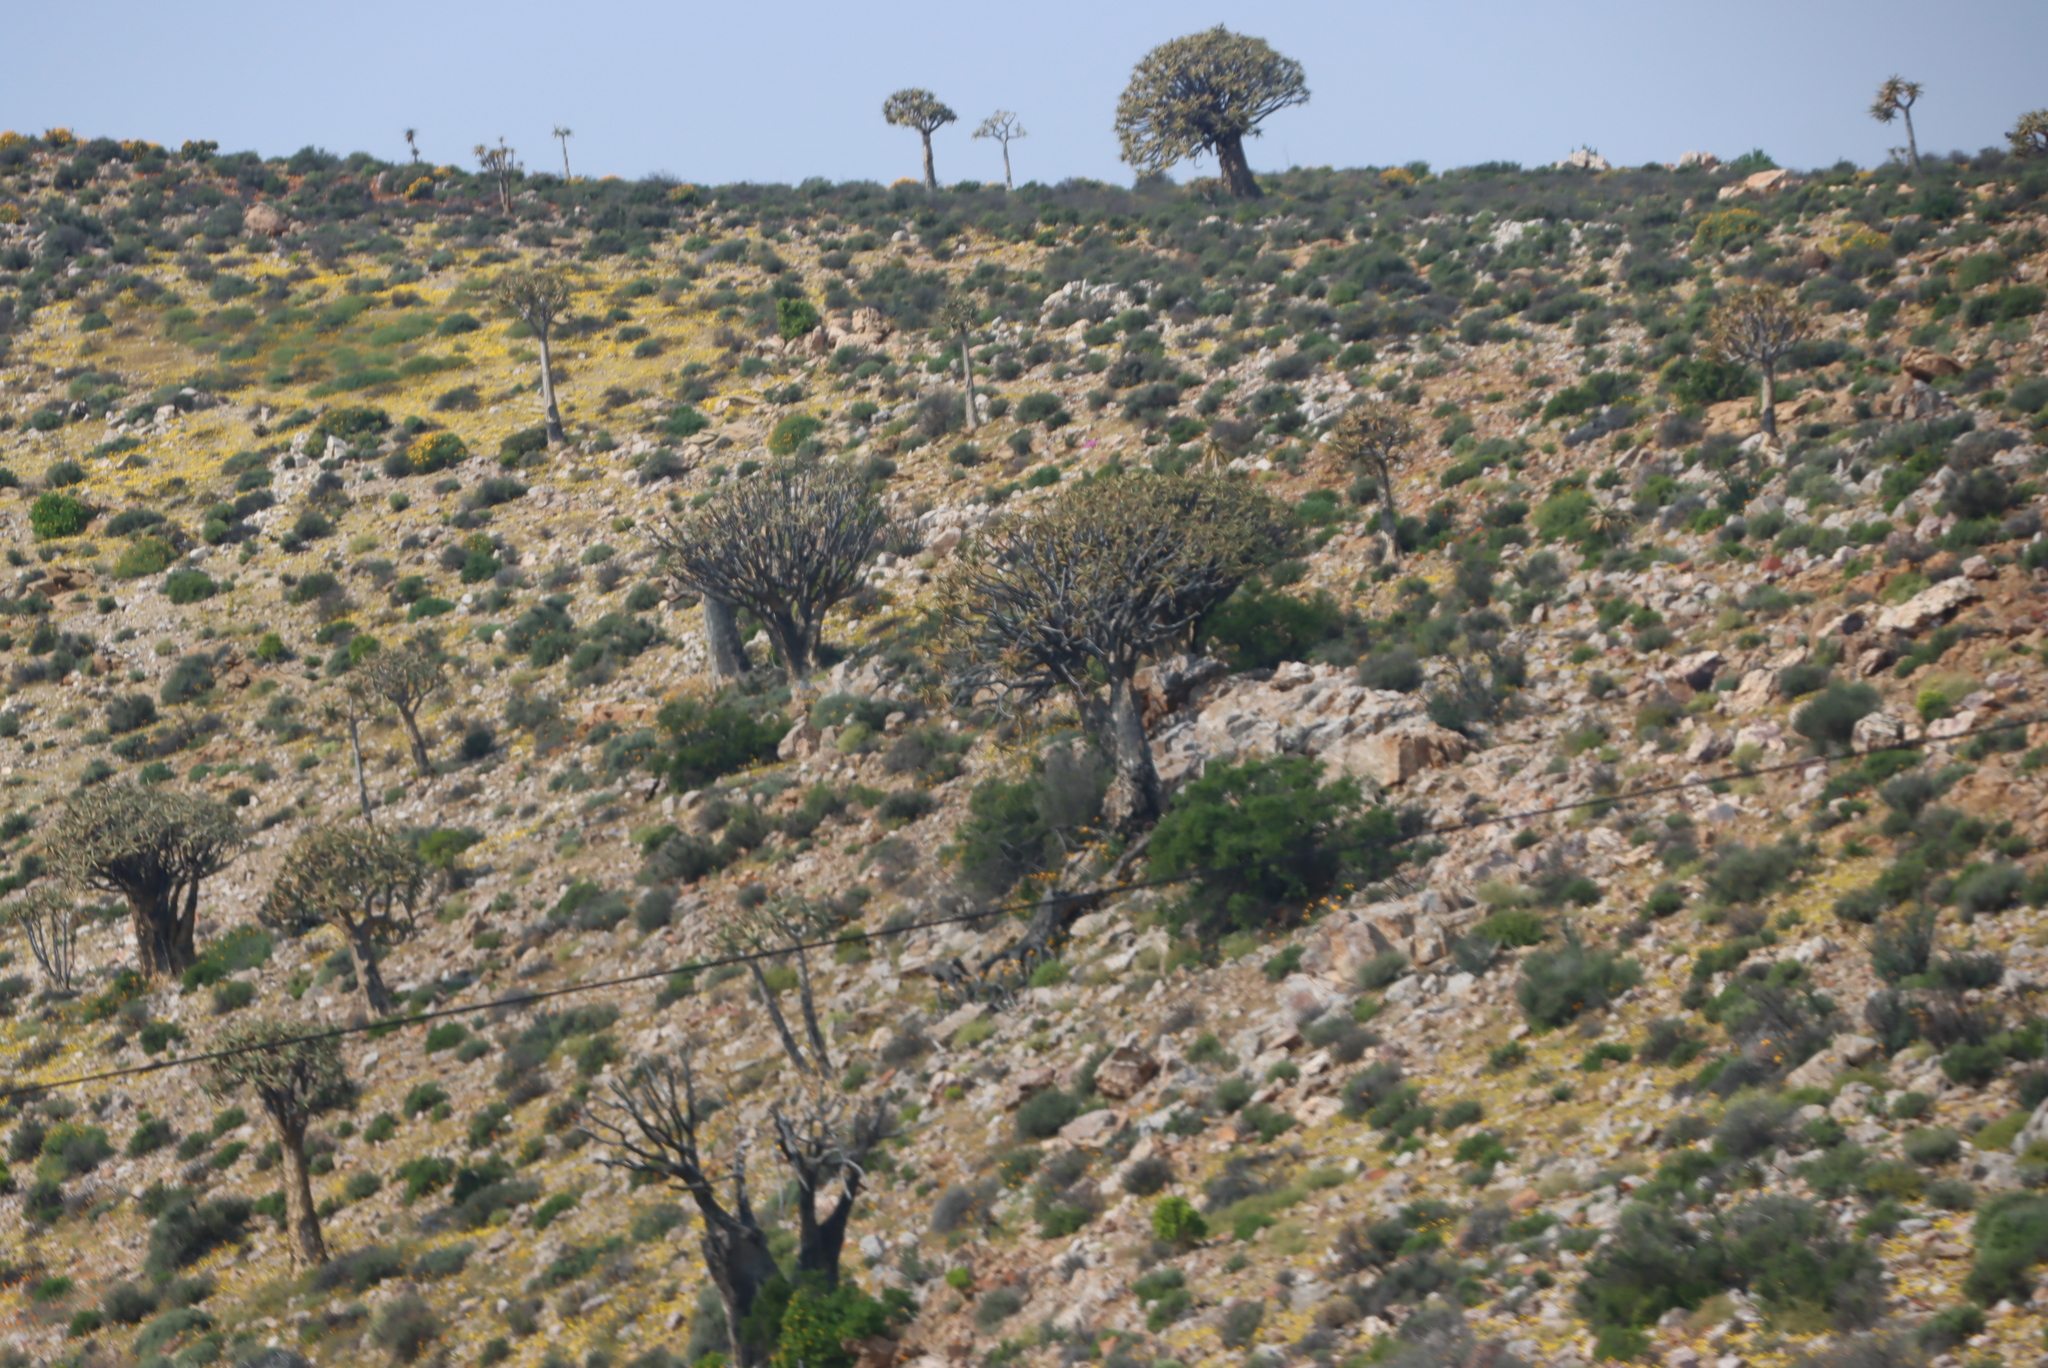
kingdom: Plantae
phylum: Tracheophyta
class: Liliopsida
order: Asparagales
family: Asphodelaceae
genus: Aloidendron
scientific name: Aloidendron dichotomum
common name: Quiver tree
